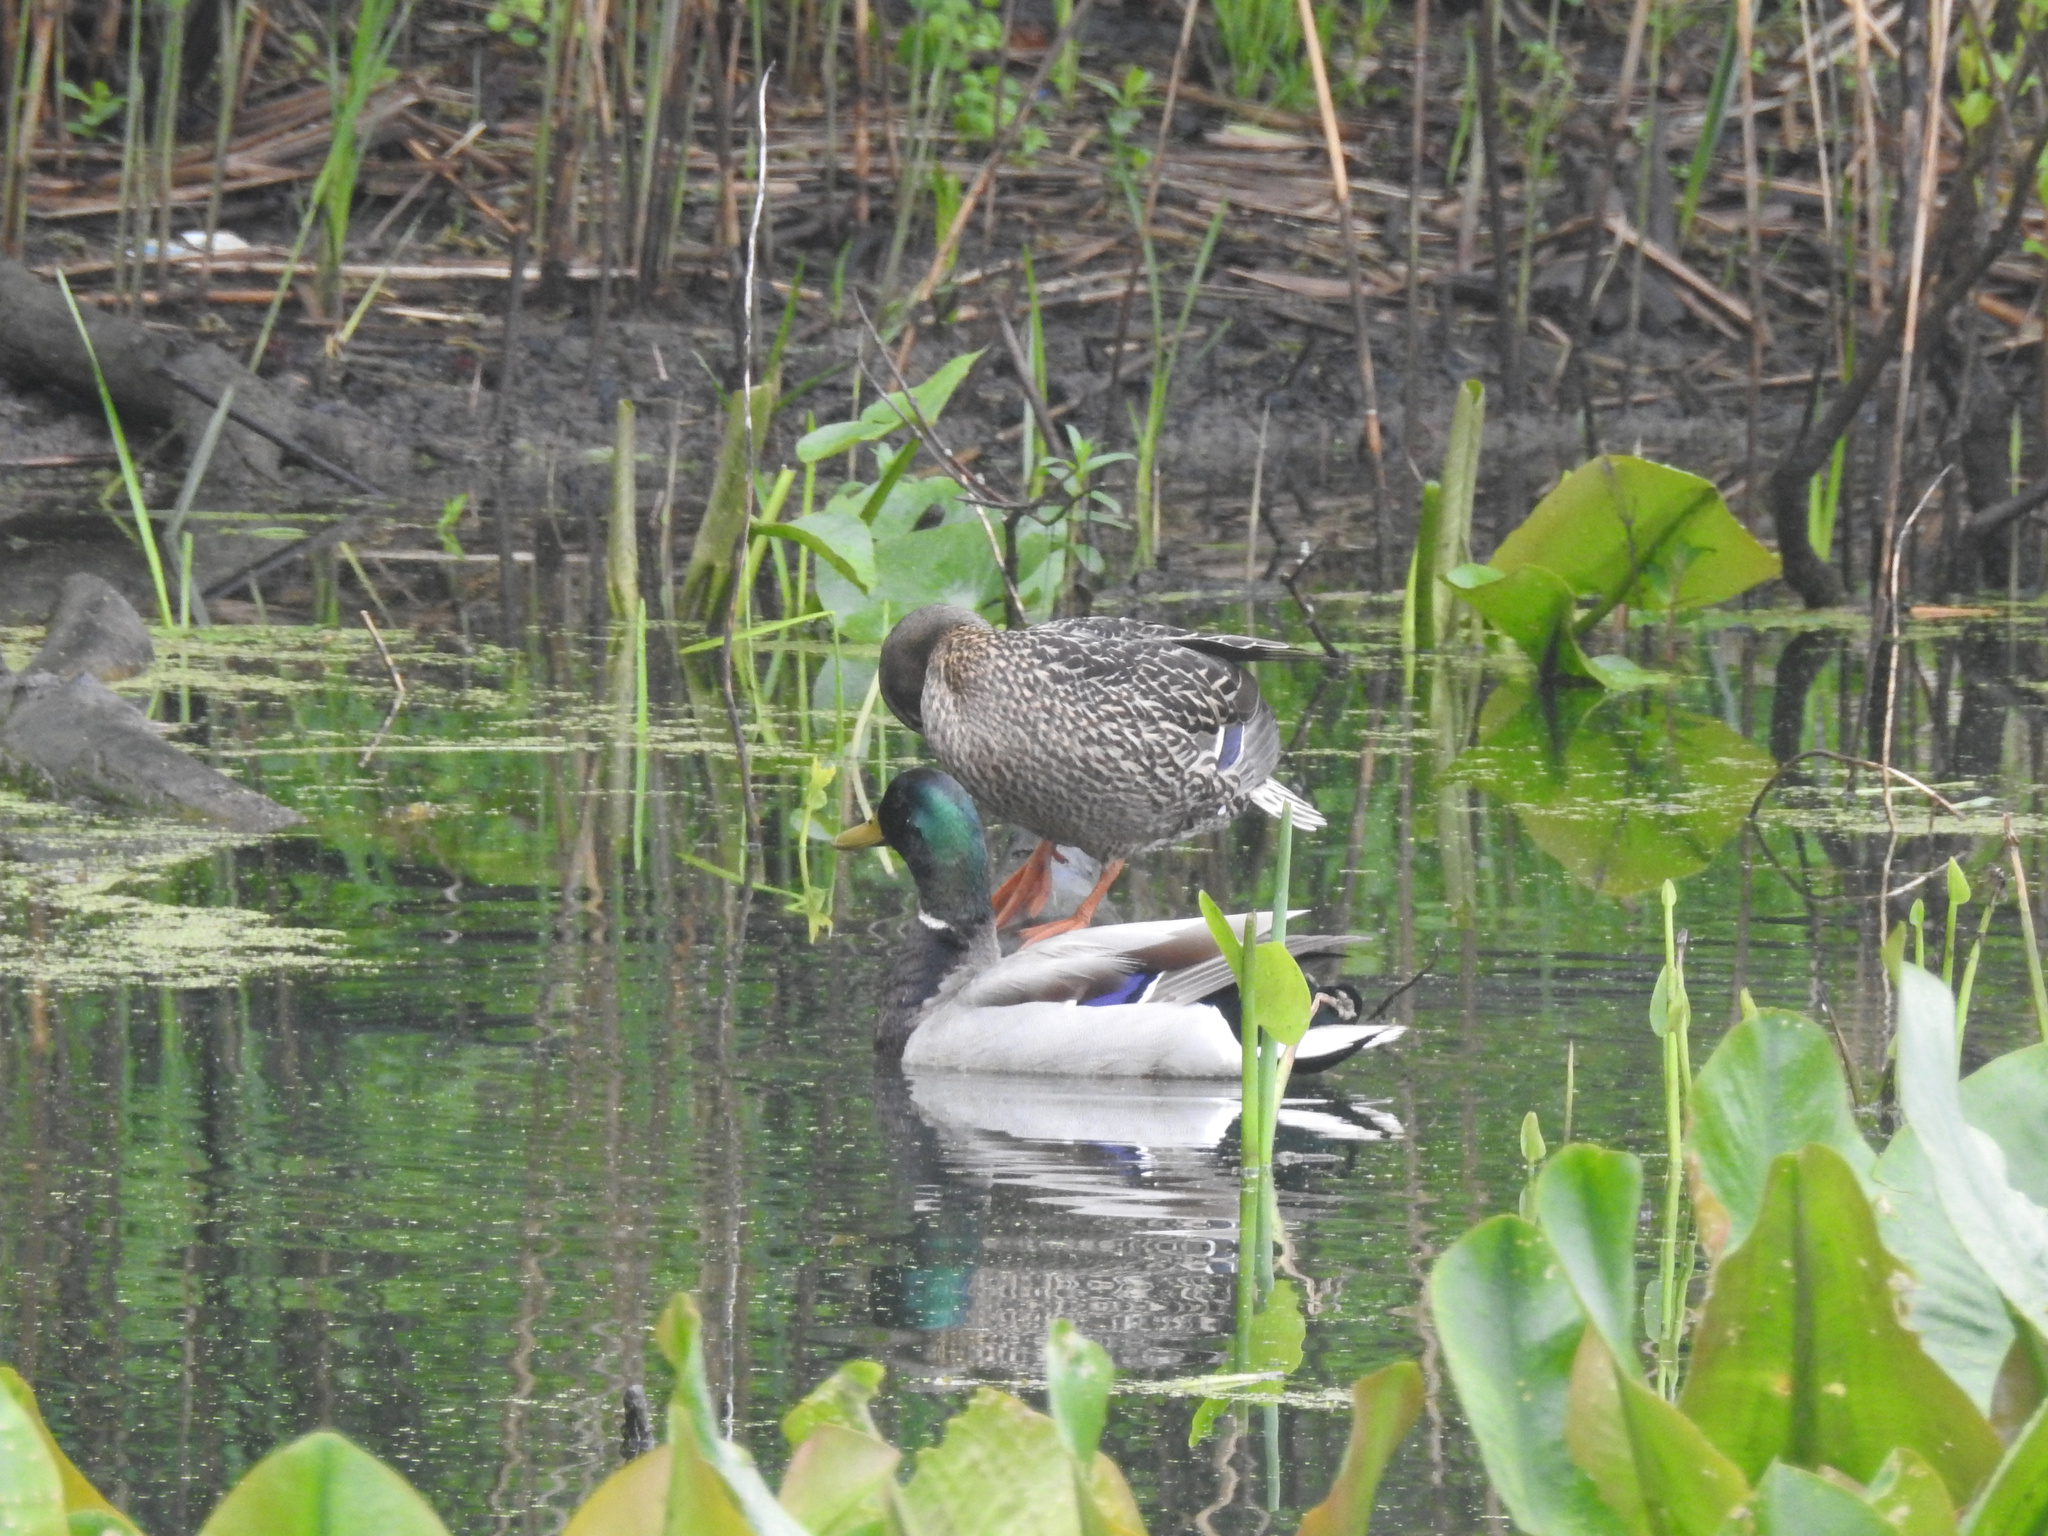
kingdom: Animalia
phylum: Chordata
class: Aves
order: Anseriformes
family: Anatidae
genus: Anas
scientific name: Anas platyrhynchos
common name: Mallard
